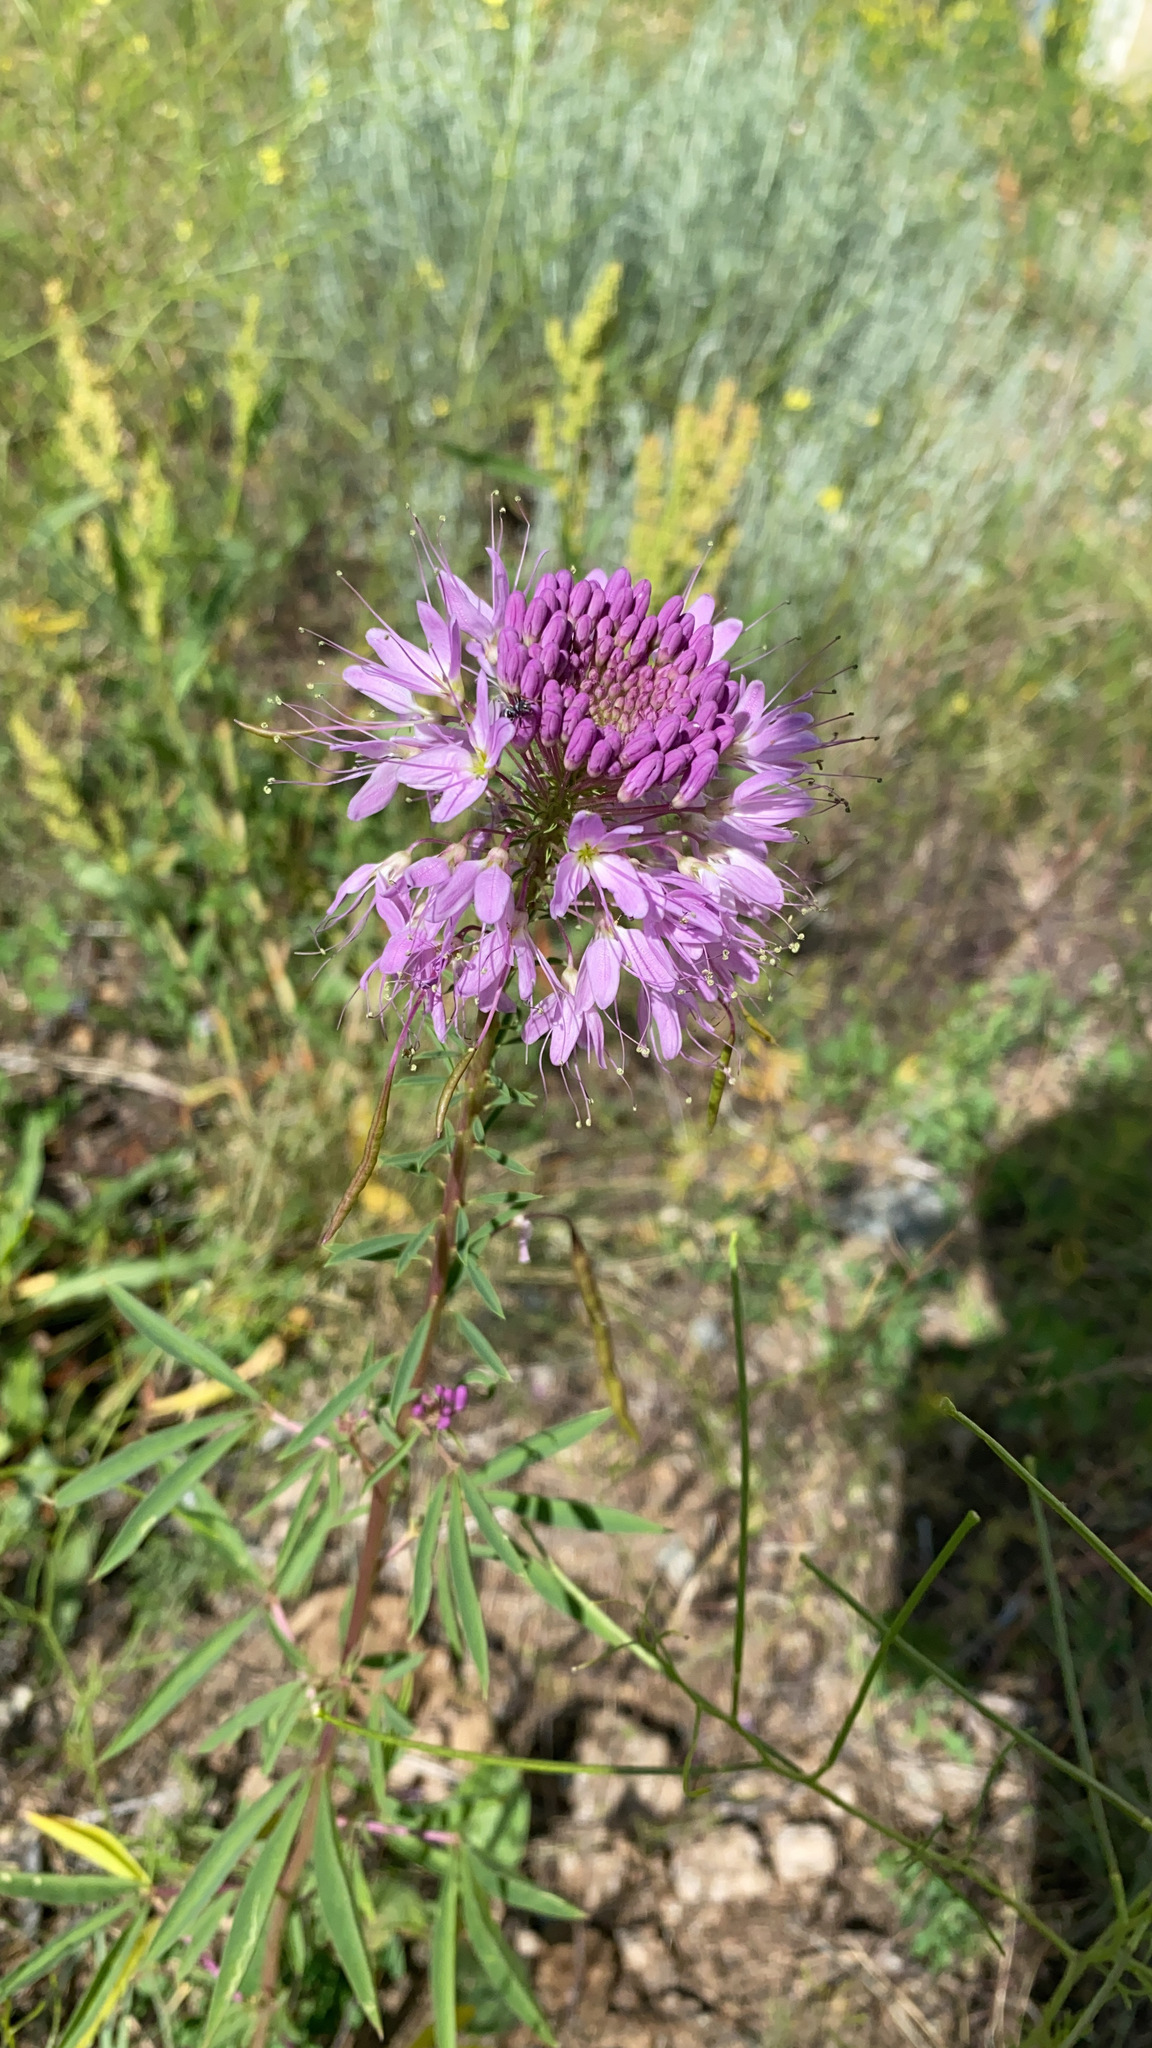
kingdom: Plantae
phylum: Tracheophyta
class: Magnoliopsida
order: Brassicales
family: Cleomaceae
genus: Cleomella
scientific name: Cleomella serrulata
